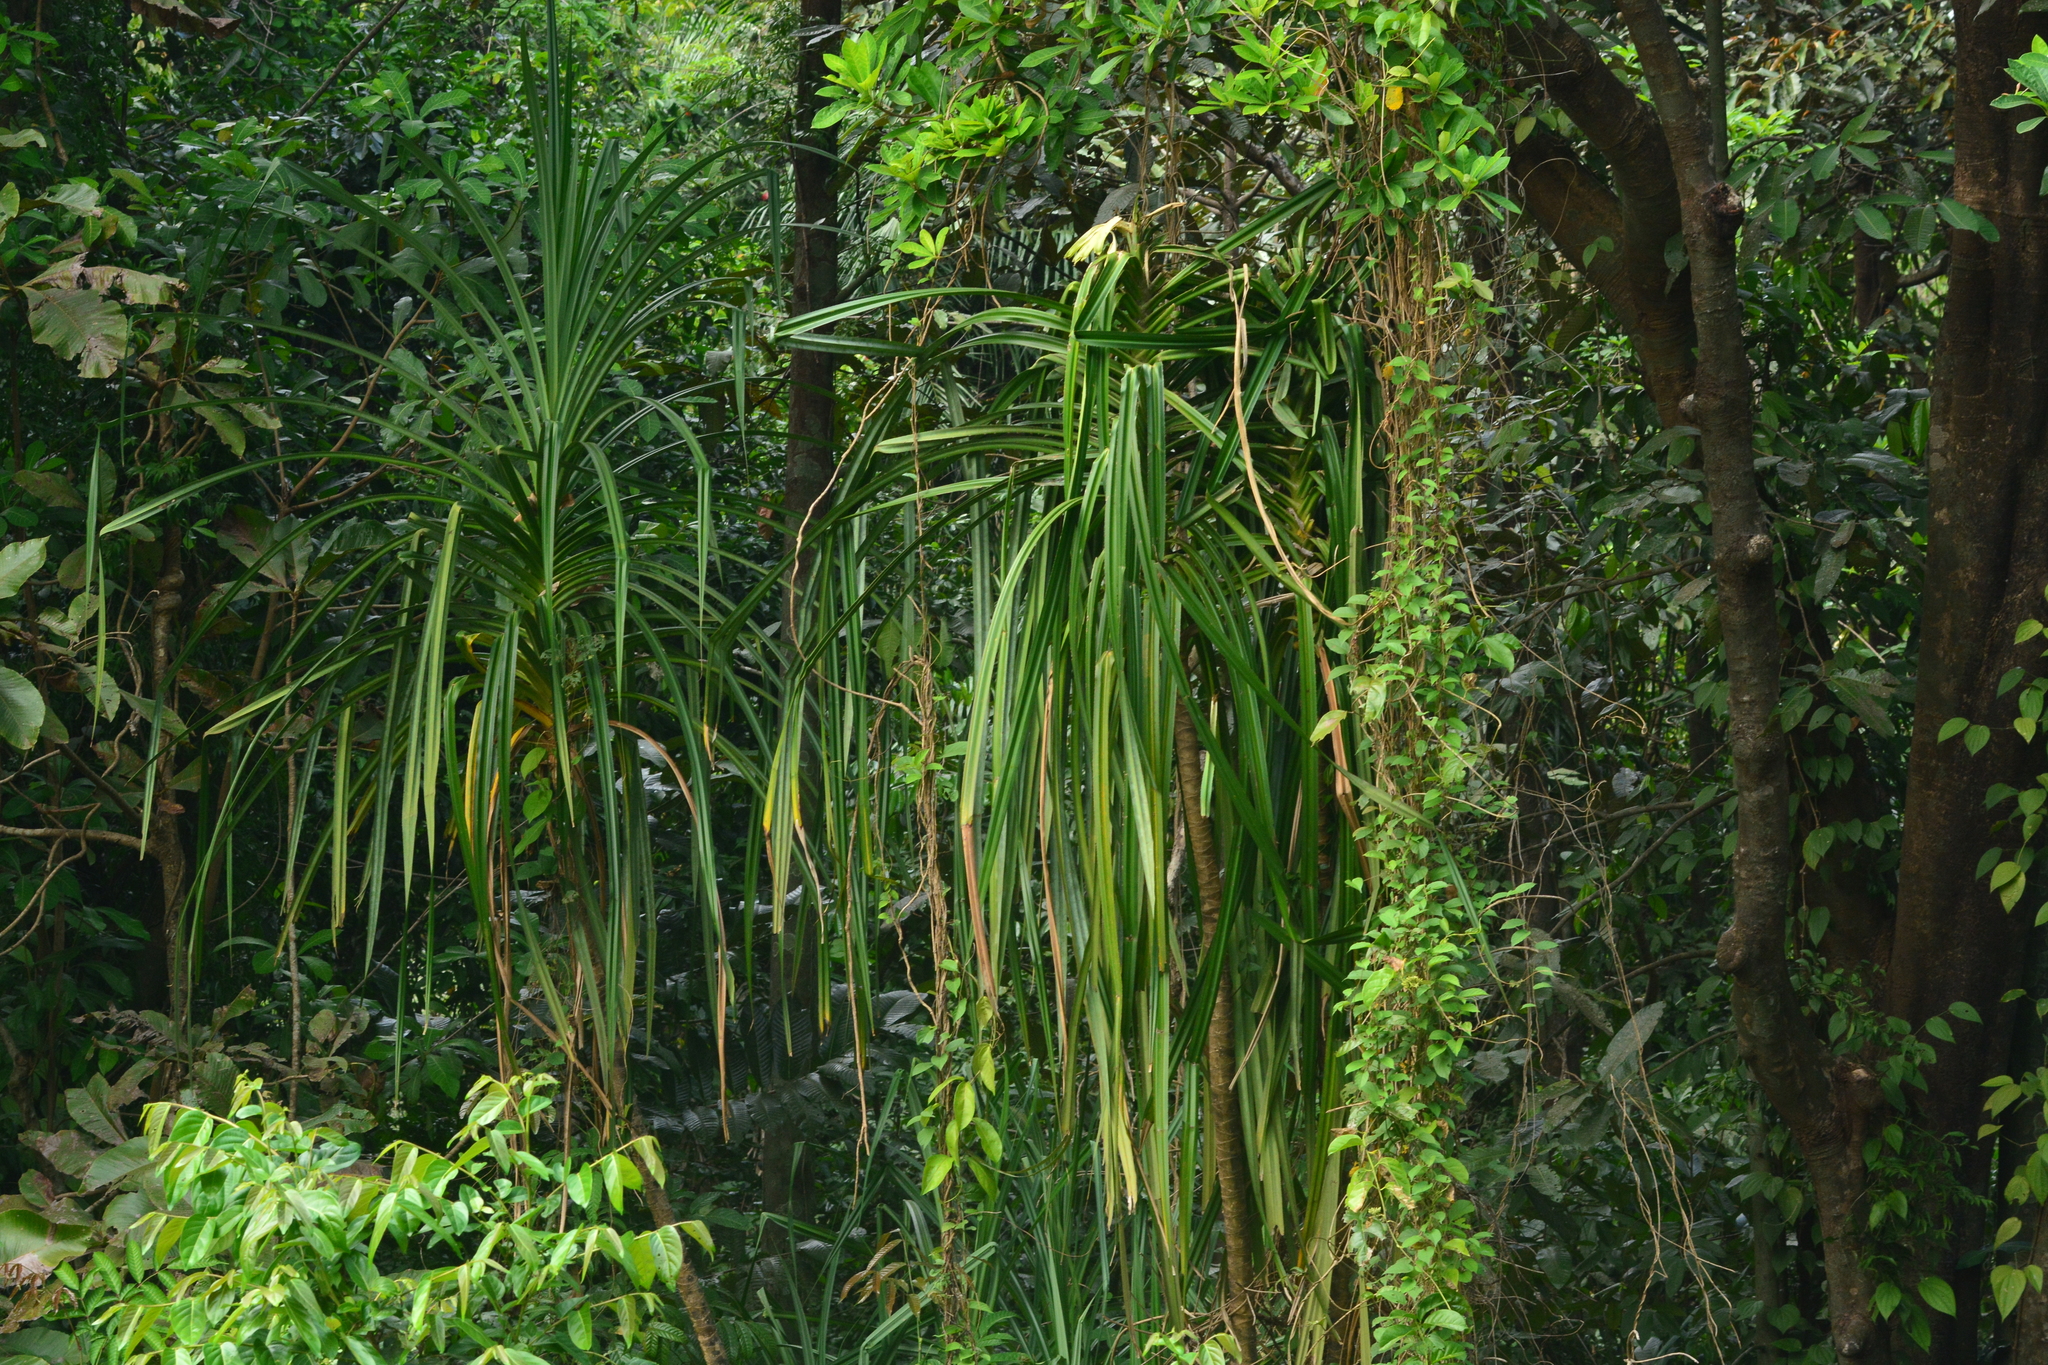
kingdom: Plantae
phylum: Tracheophyta
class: Liliopsida
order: Pandanales
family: Pandanaceae
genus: Pandanus
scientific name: Pandanus kaida
